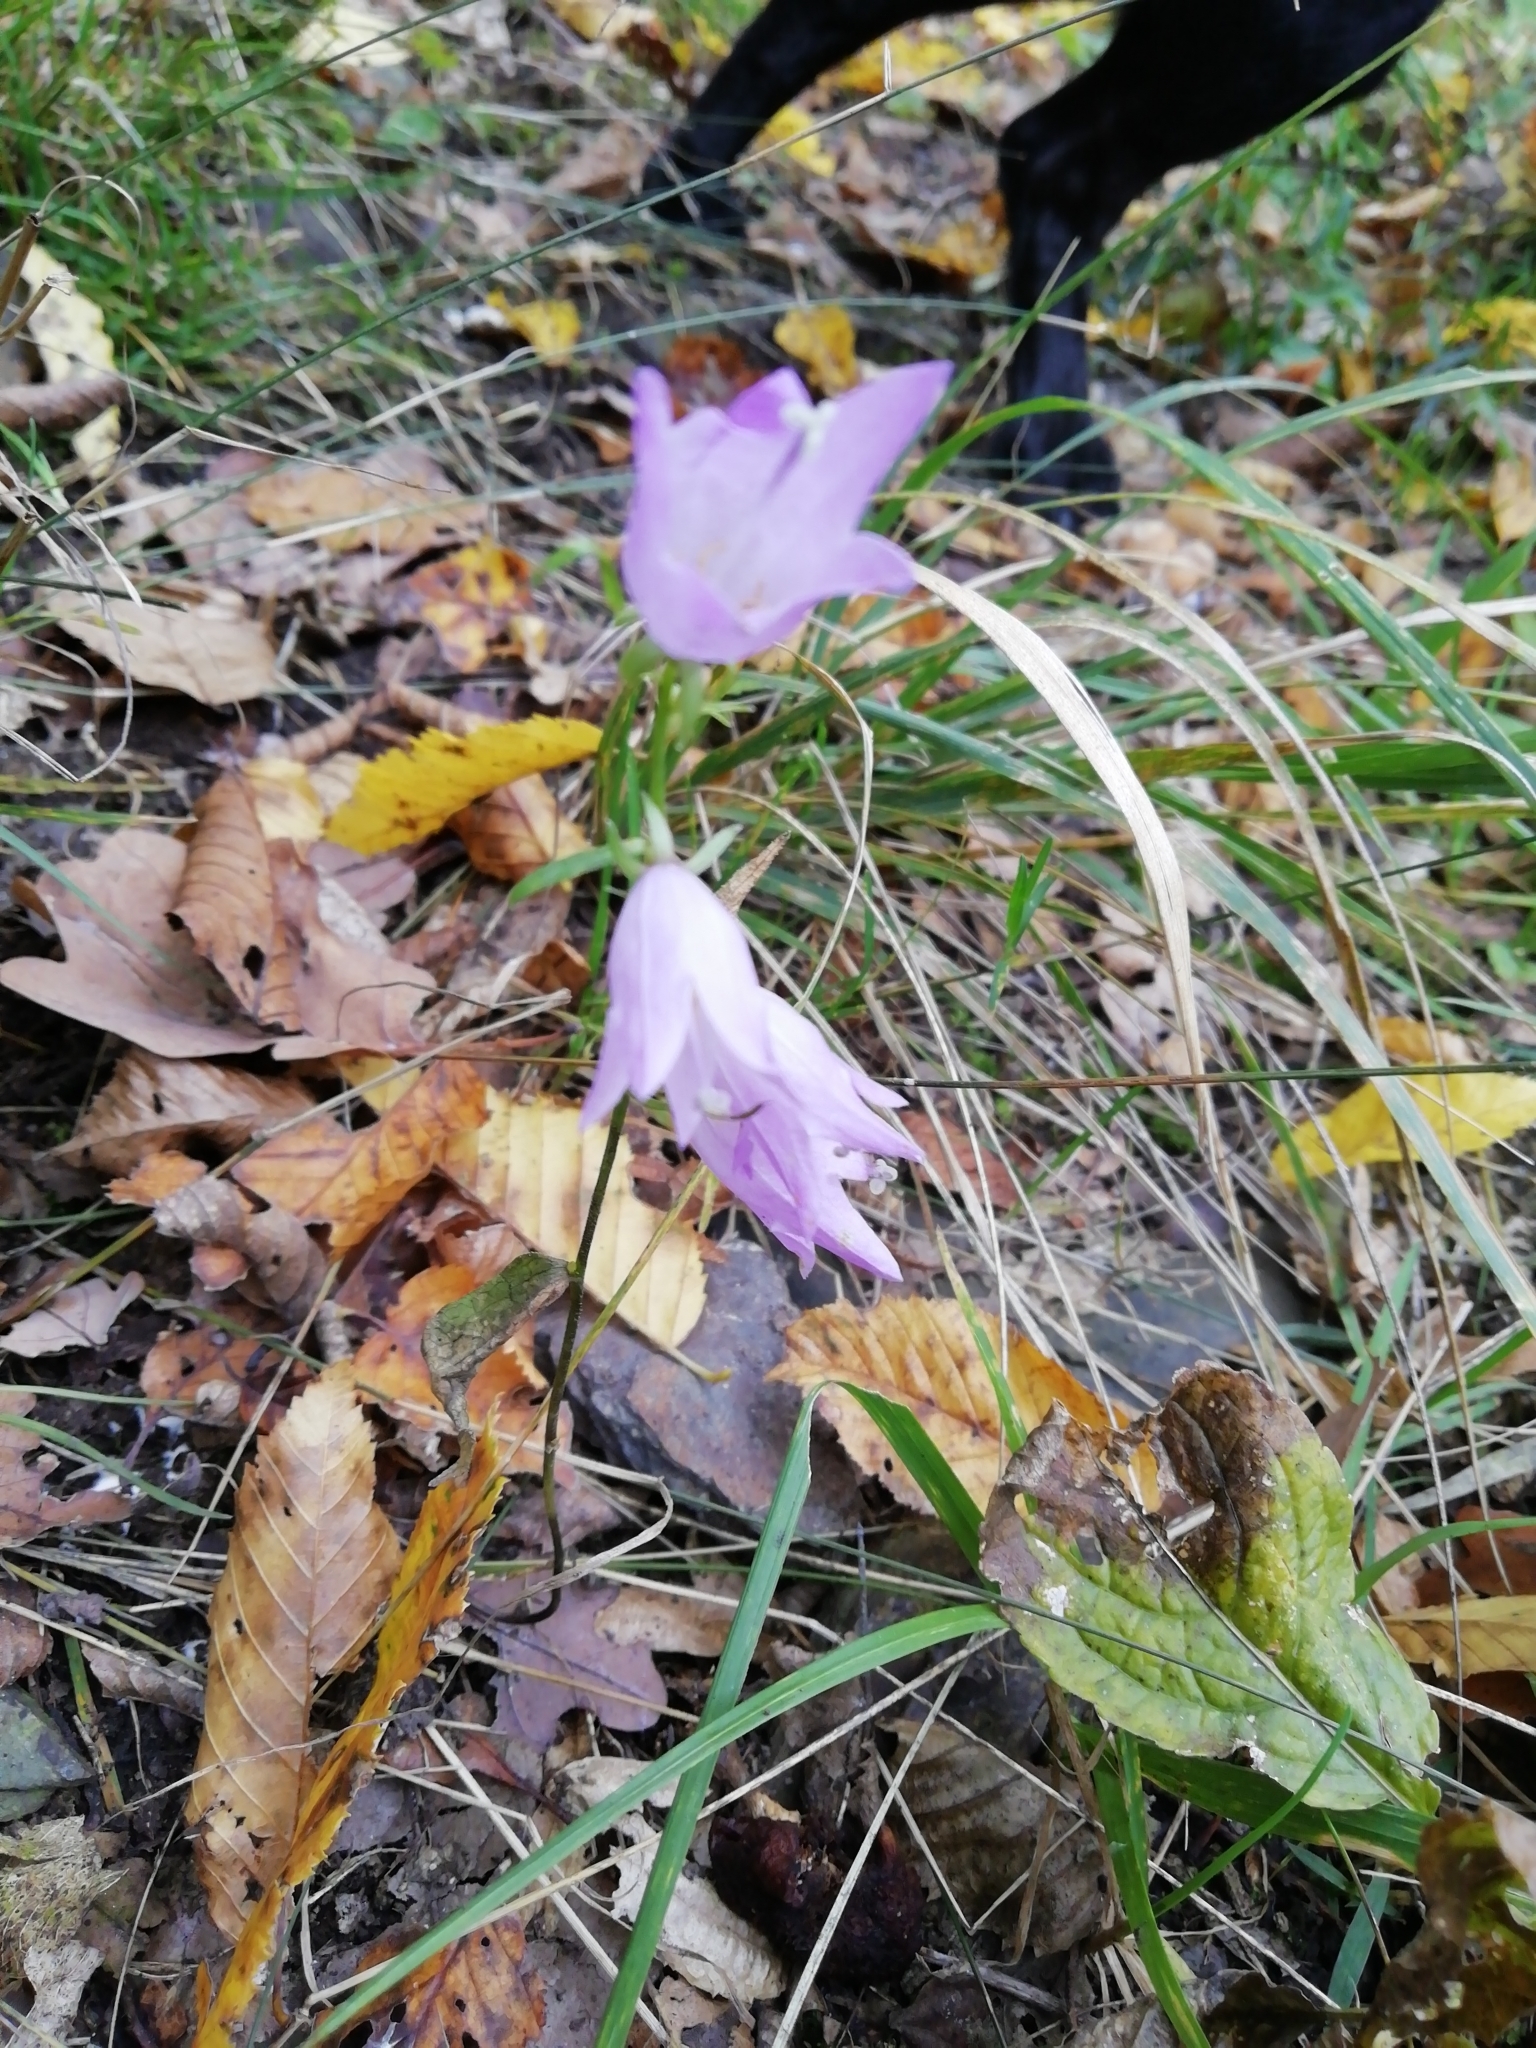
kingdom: Plantae
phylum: Tracheophyta
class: Magnoliopsida
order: Asterales
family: Campanulaceae
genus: Campanula
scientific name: Campanula rapunculoides
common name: Creeping bellflower
